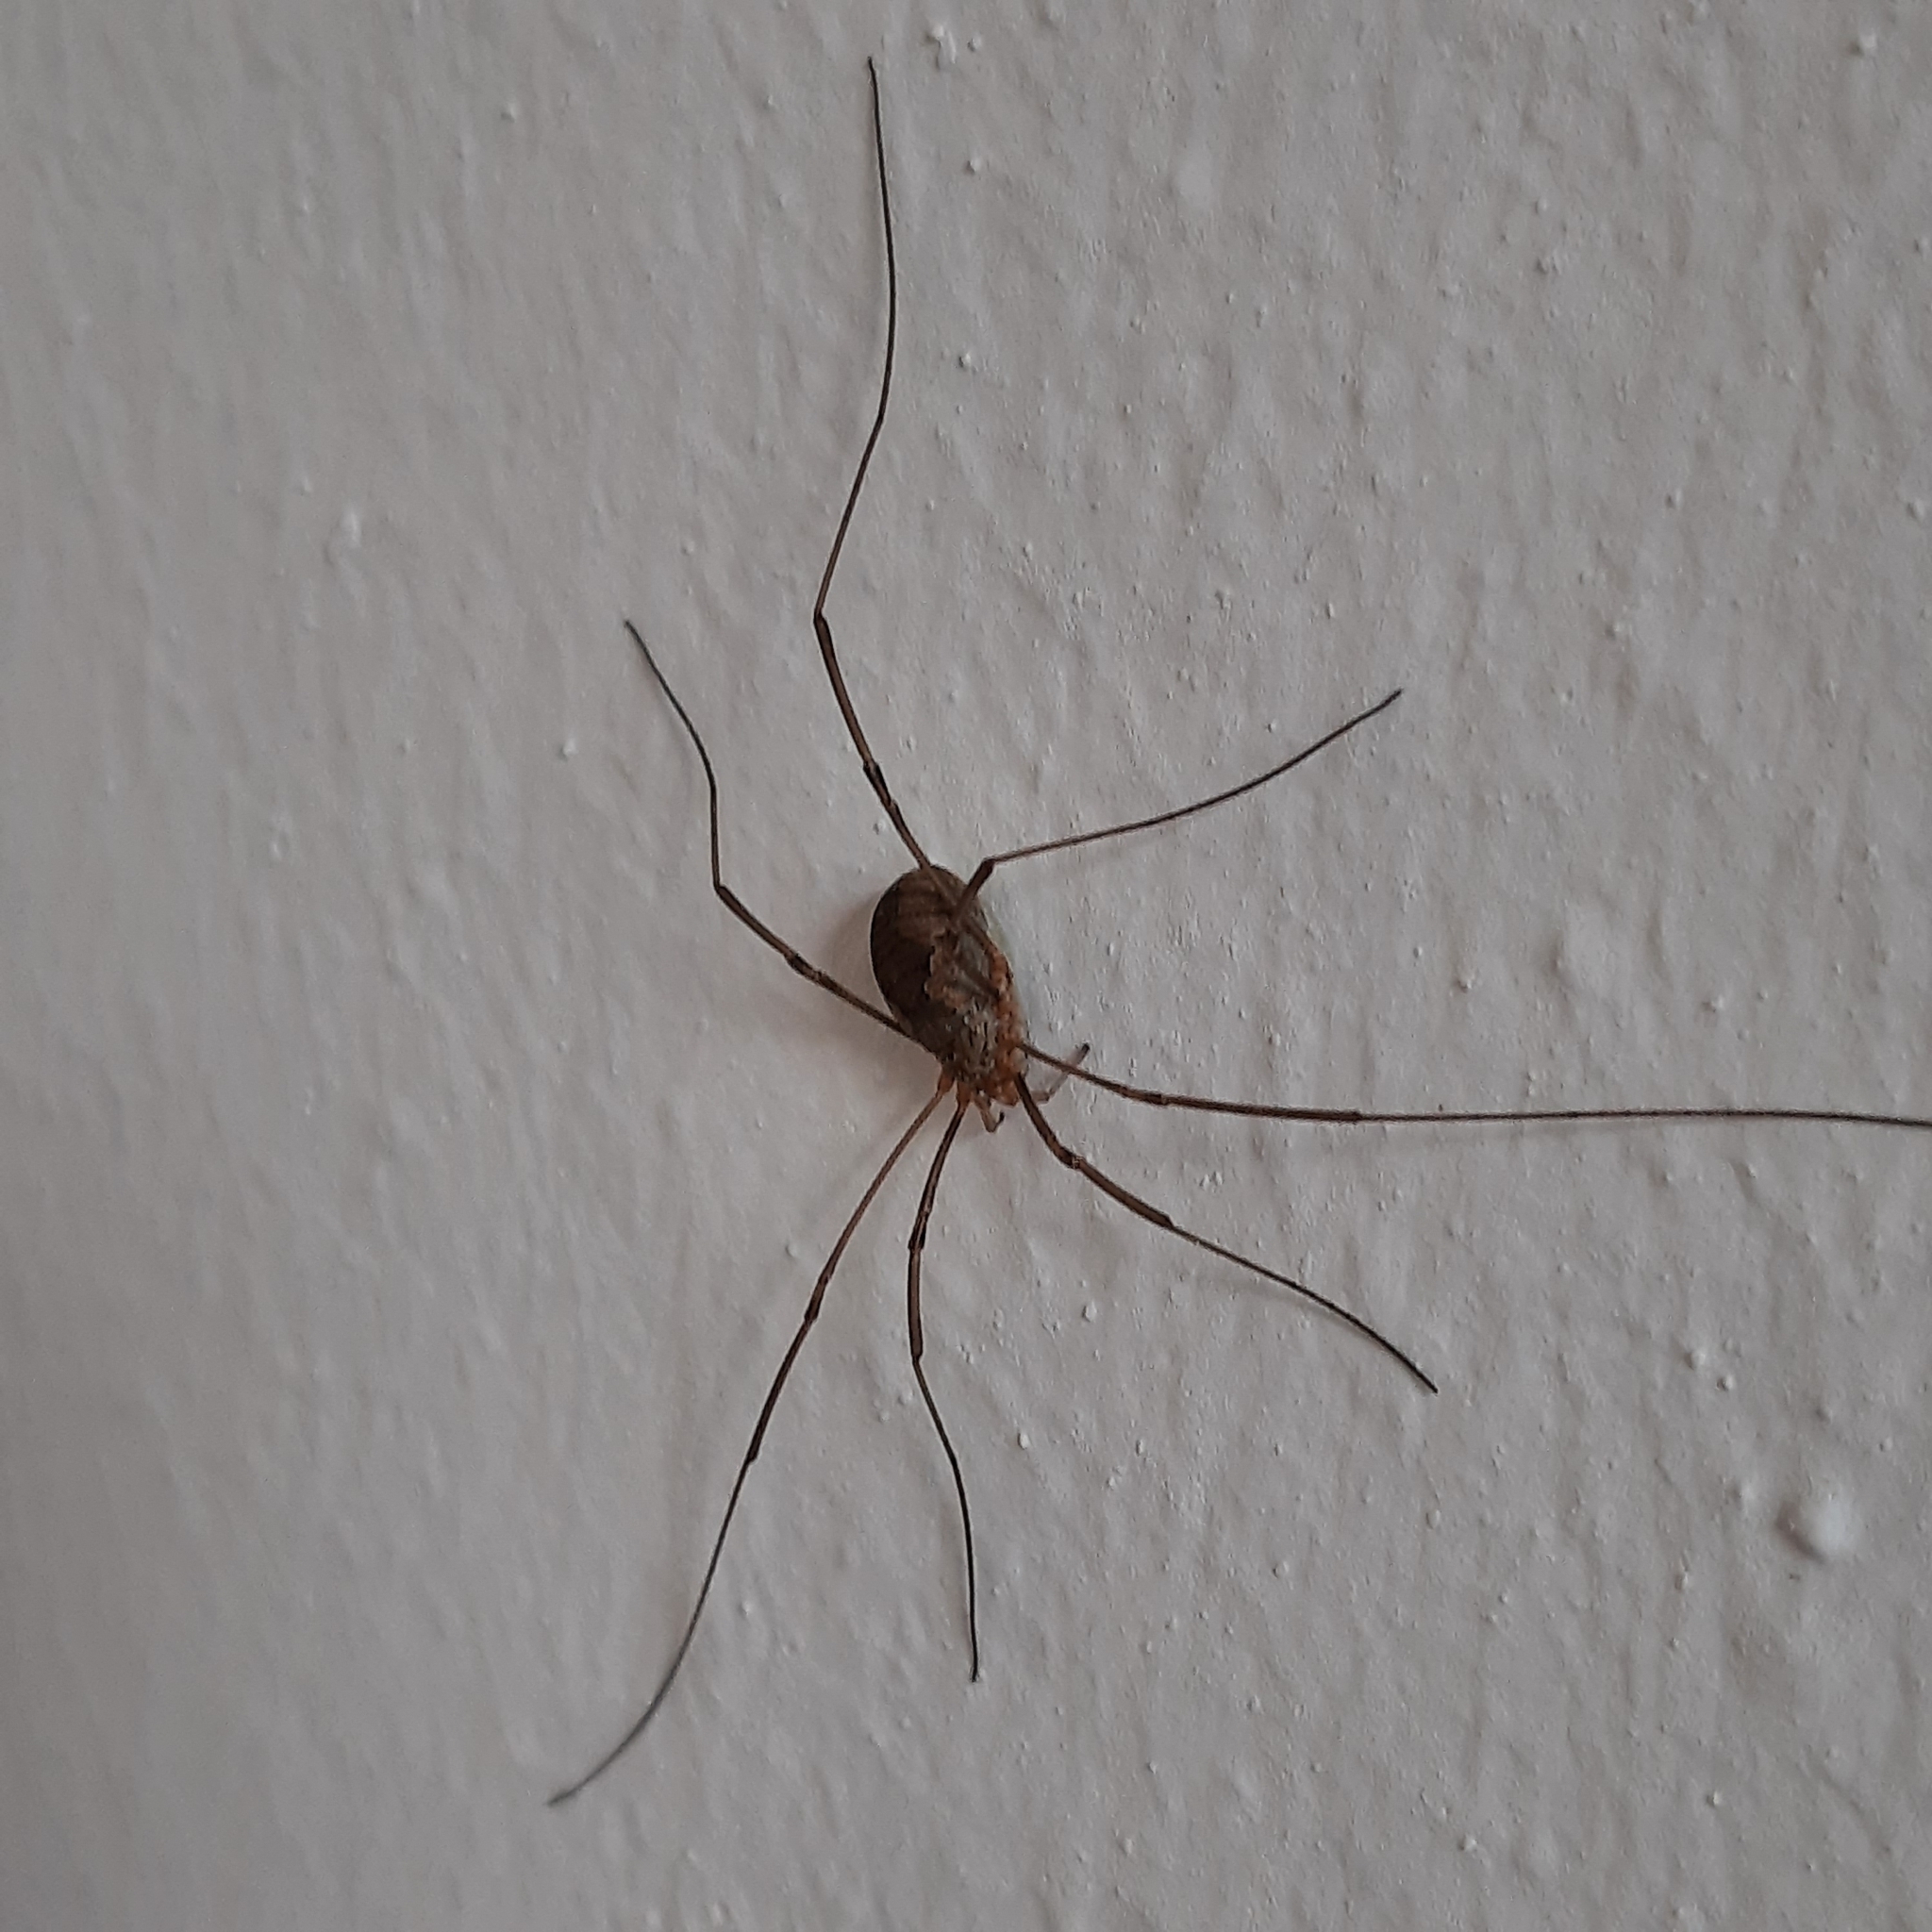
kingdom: Animalia
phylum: Arthropoda
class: Arachnida
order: Opiliones
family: Phalangiidae
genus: Phalangium
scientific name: Phalangium opilio
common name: Daddy longleg
